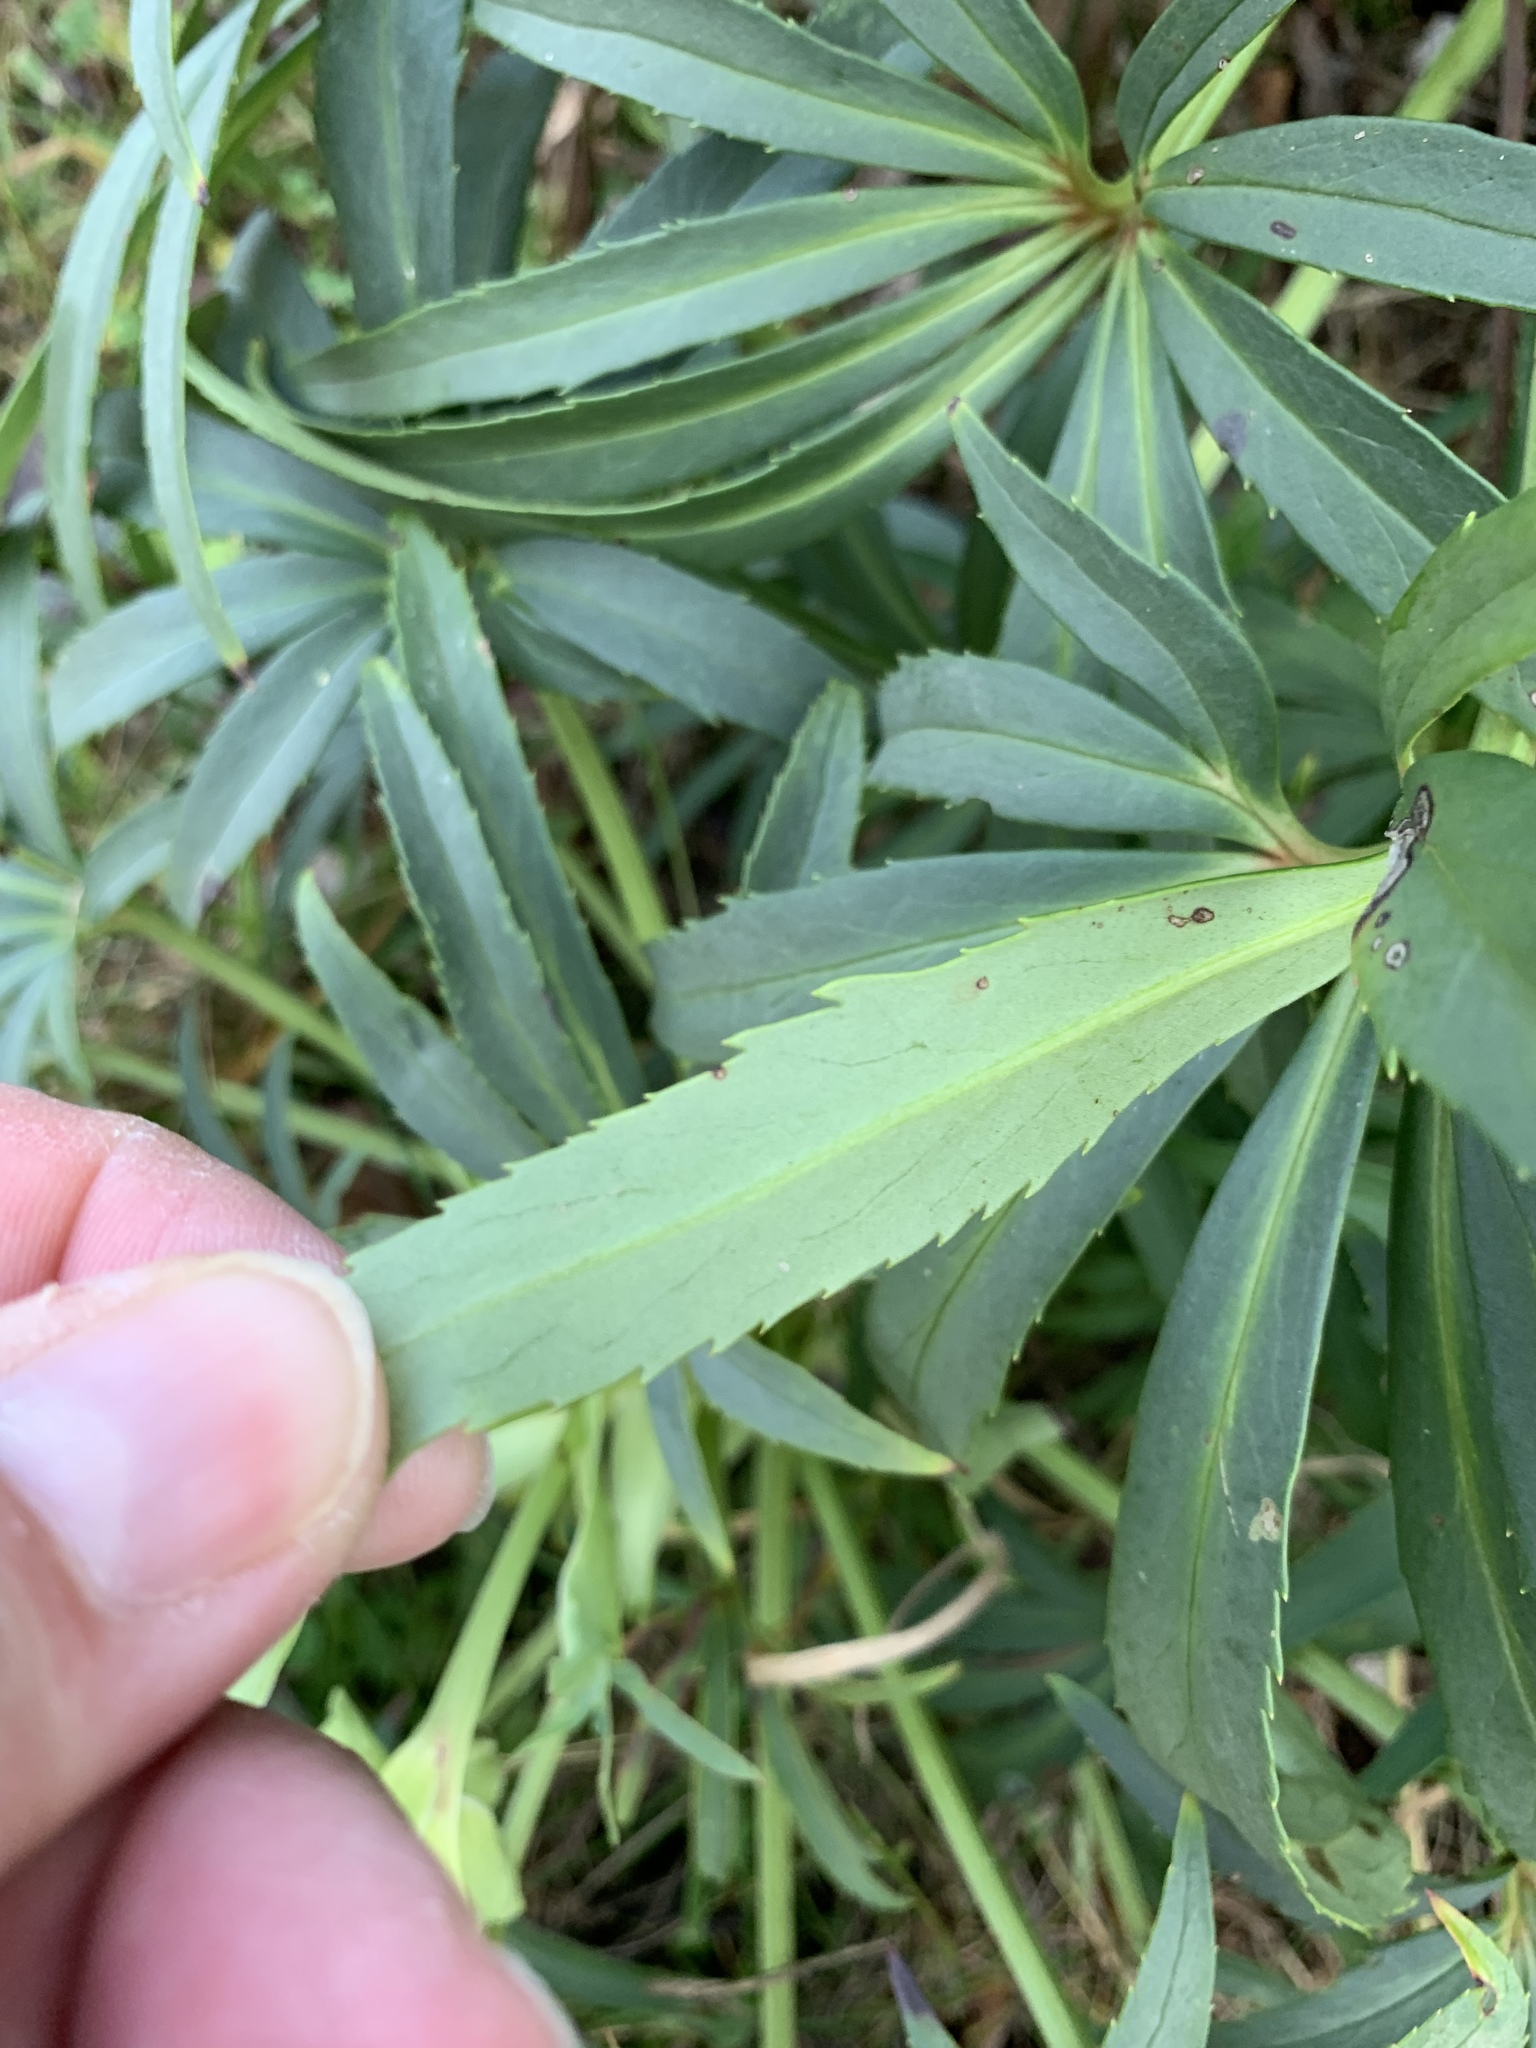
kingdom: Plantae
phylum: Tracheophyta
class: Magnoliopsida
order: Ranunculales
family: Ranunculaceae
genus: Helleborus
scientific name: Helleborus foetidus
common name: Stinking hellebore
